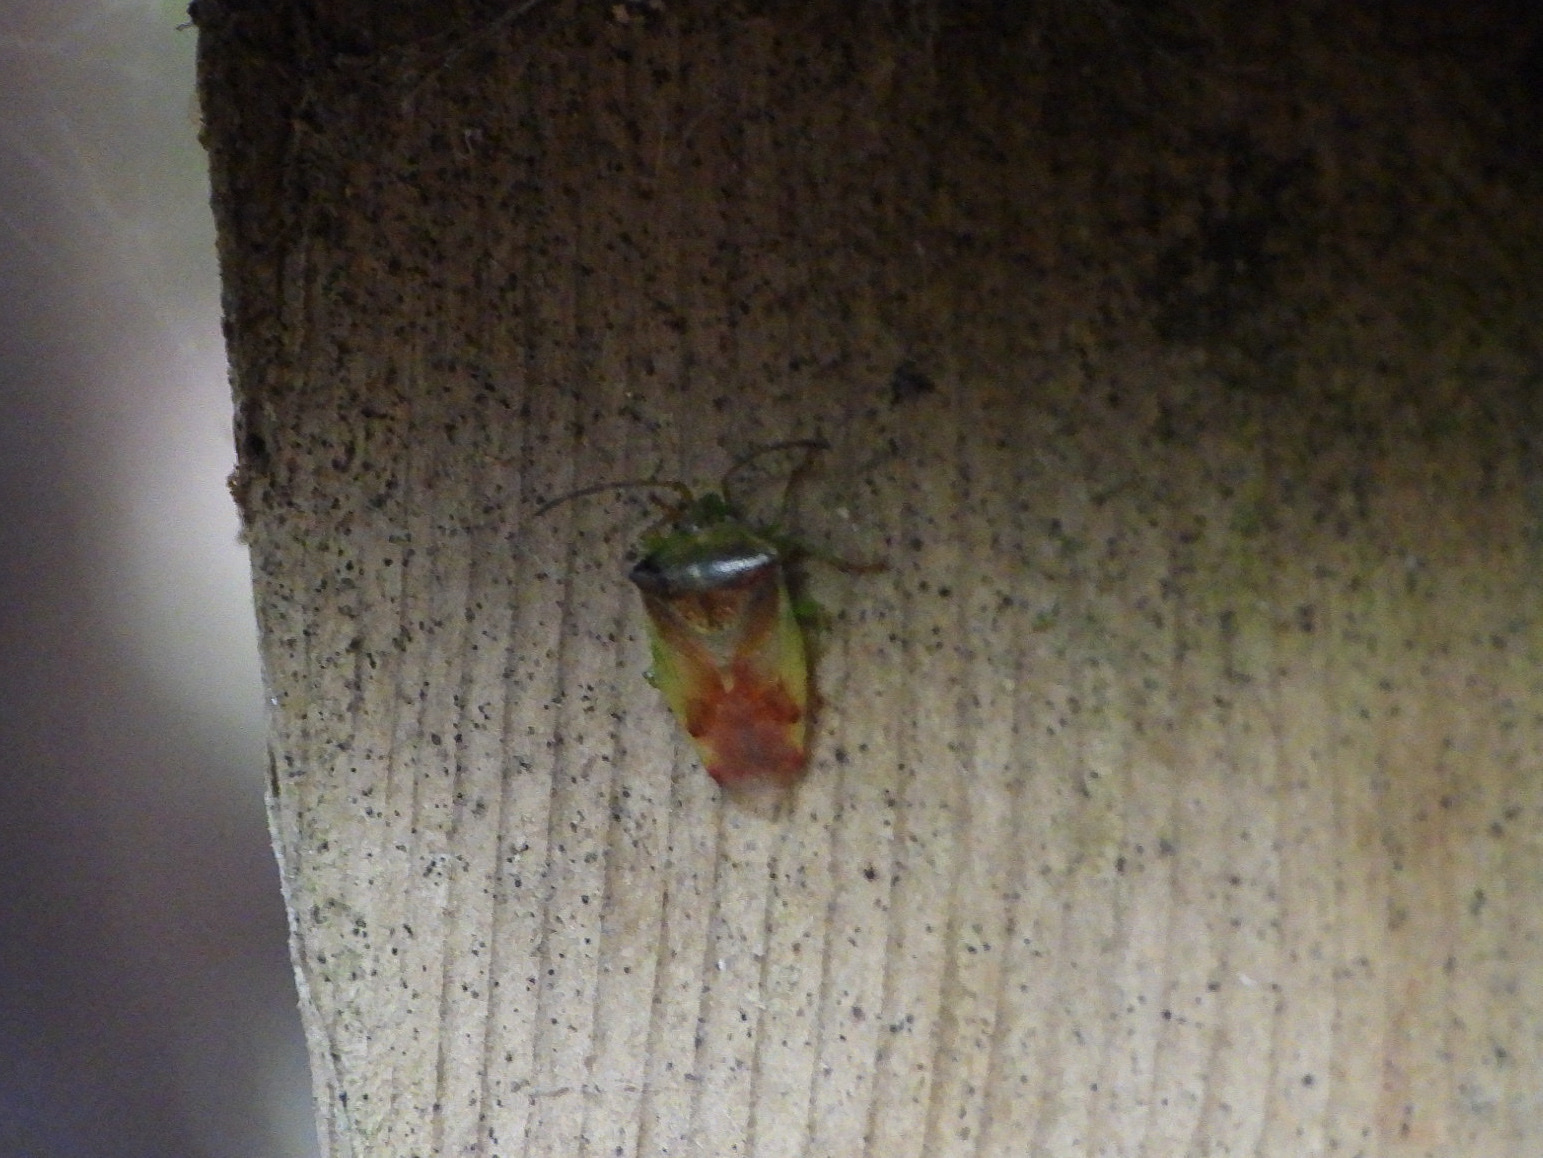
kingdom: Animalia
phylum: Arthropoda
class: Insecta
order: Hemiptera
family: Acanthosomatidae
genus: Elasmostethus
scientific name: Elasmostethus cruciatus
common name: Red-cross shield bug
